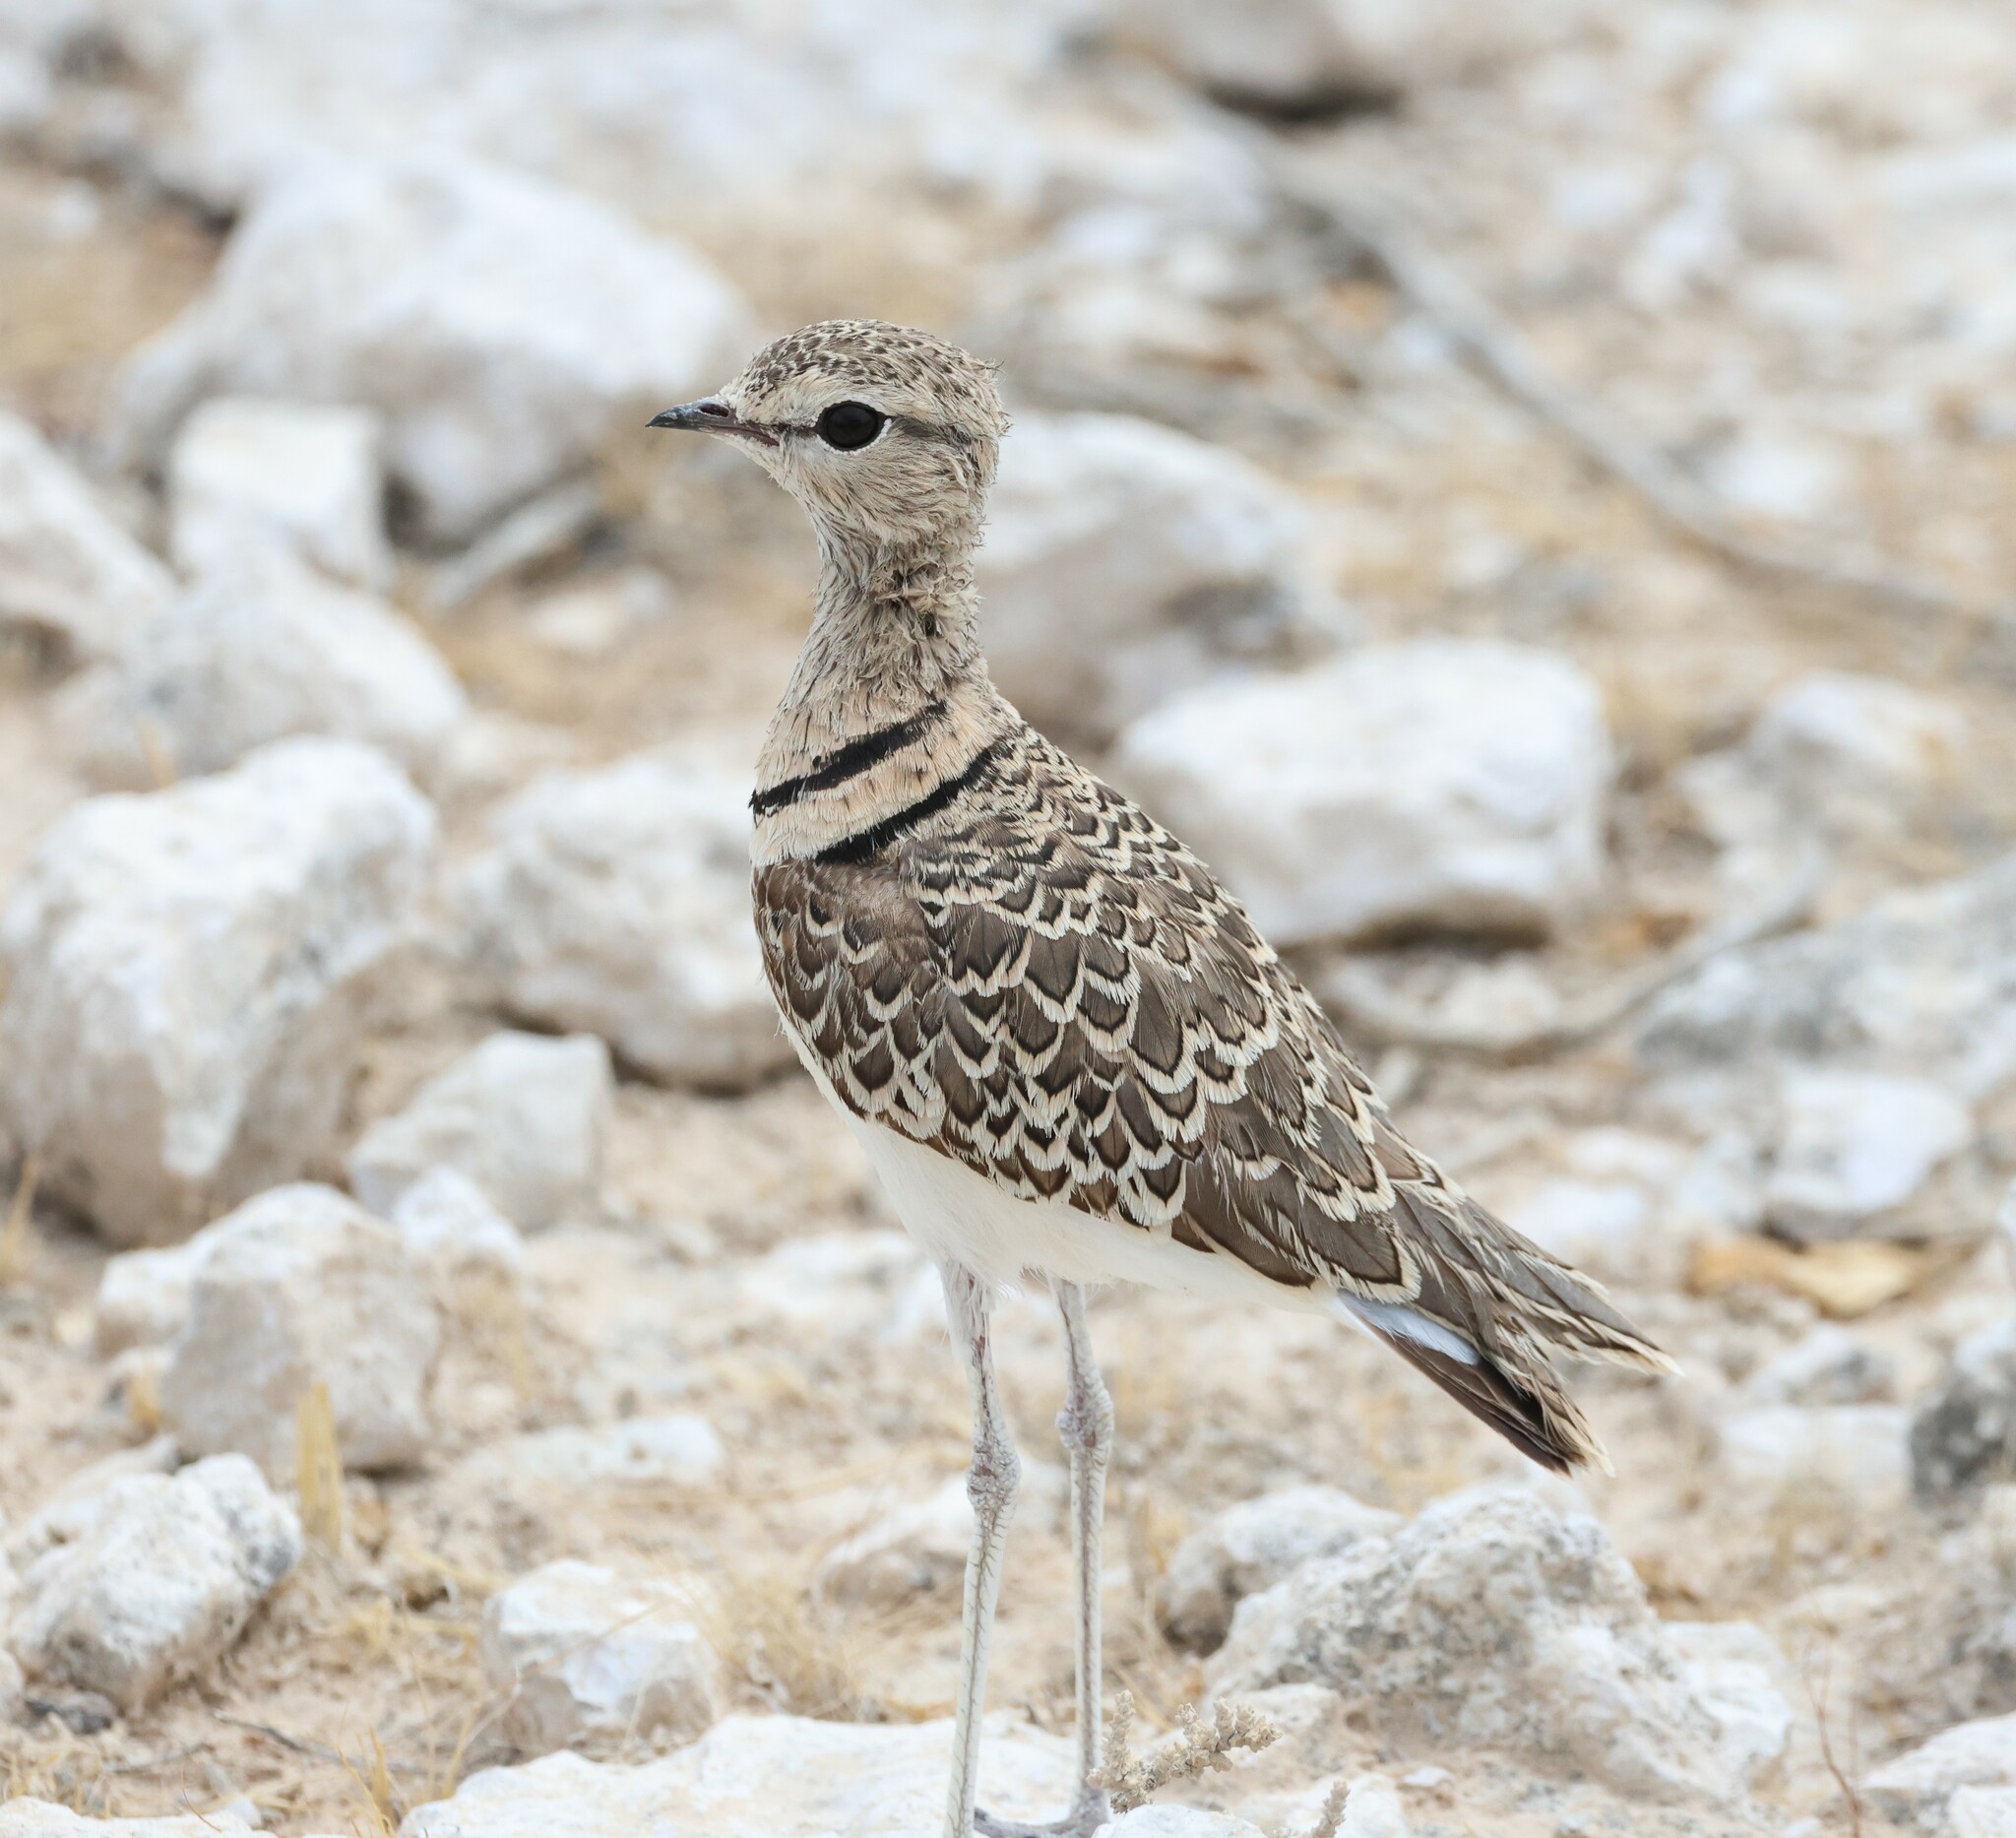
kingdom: Animalia
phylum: Chordata
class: Aves
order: Charadriiformes
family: Glareolidae
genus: Rhinoptilus
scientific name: Rhinoptilus africanus
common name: Double-banded courser
